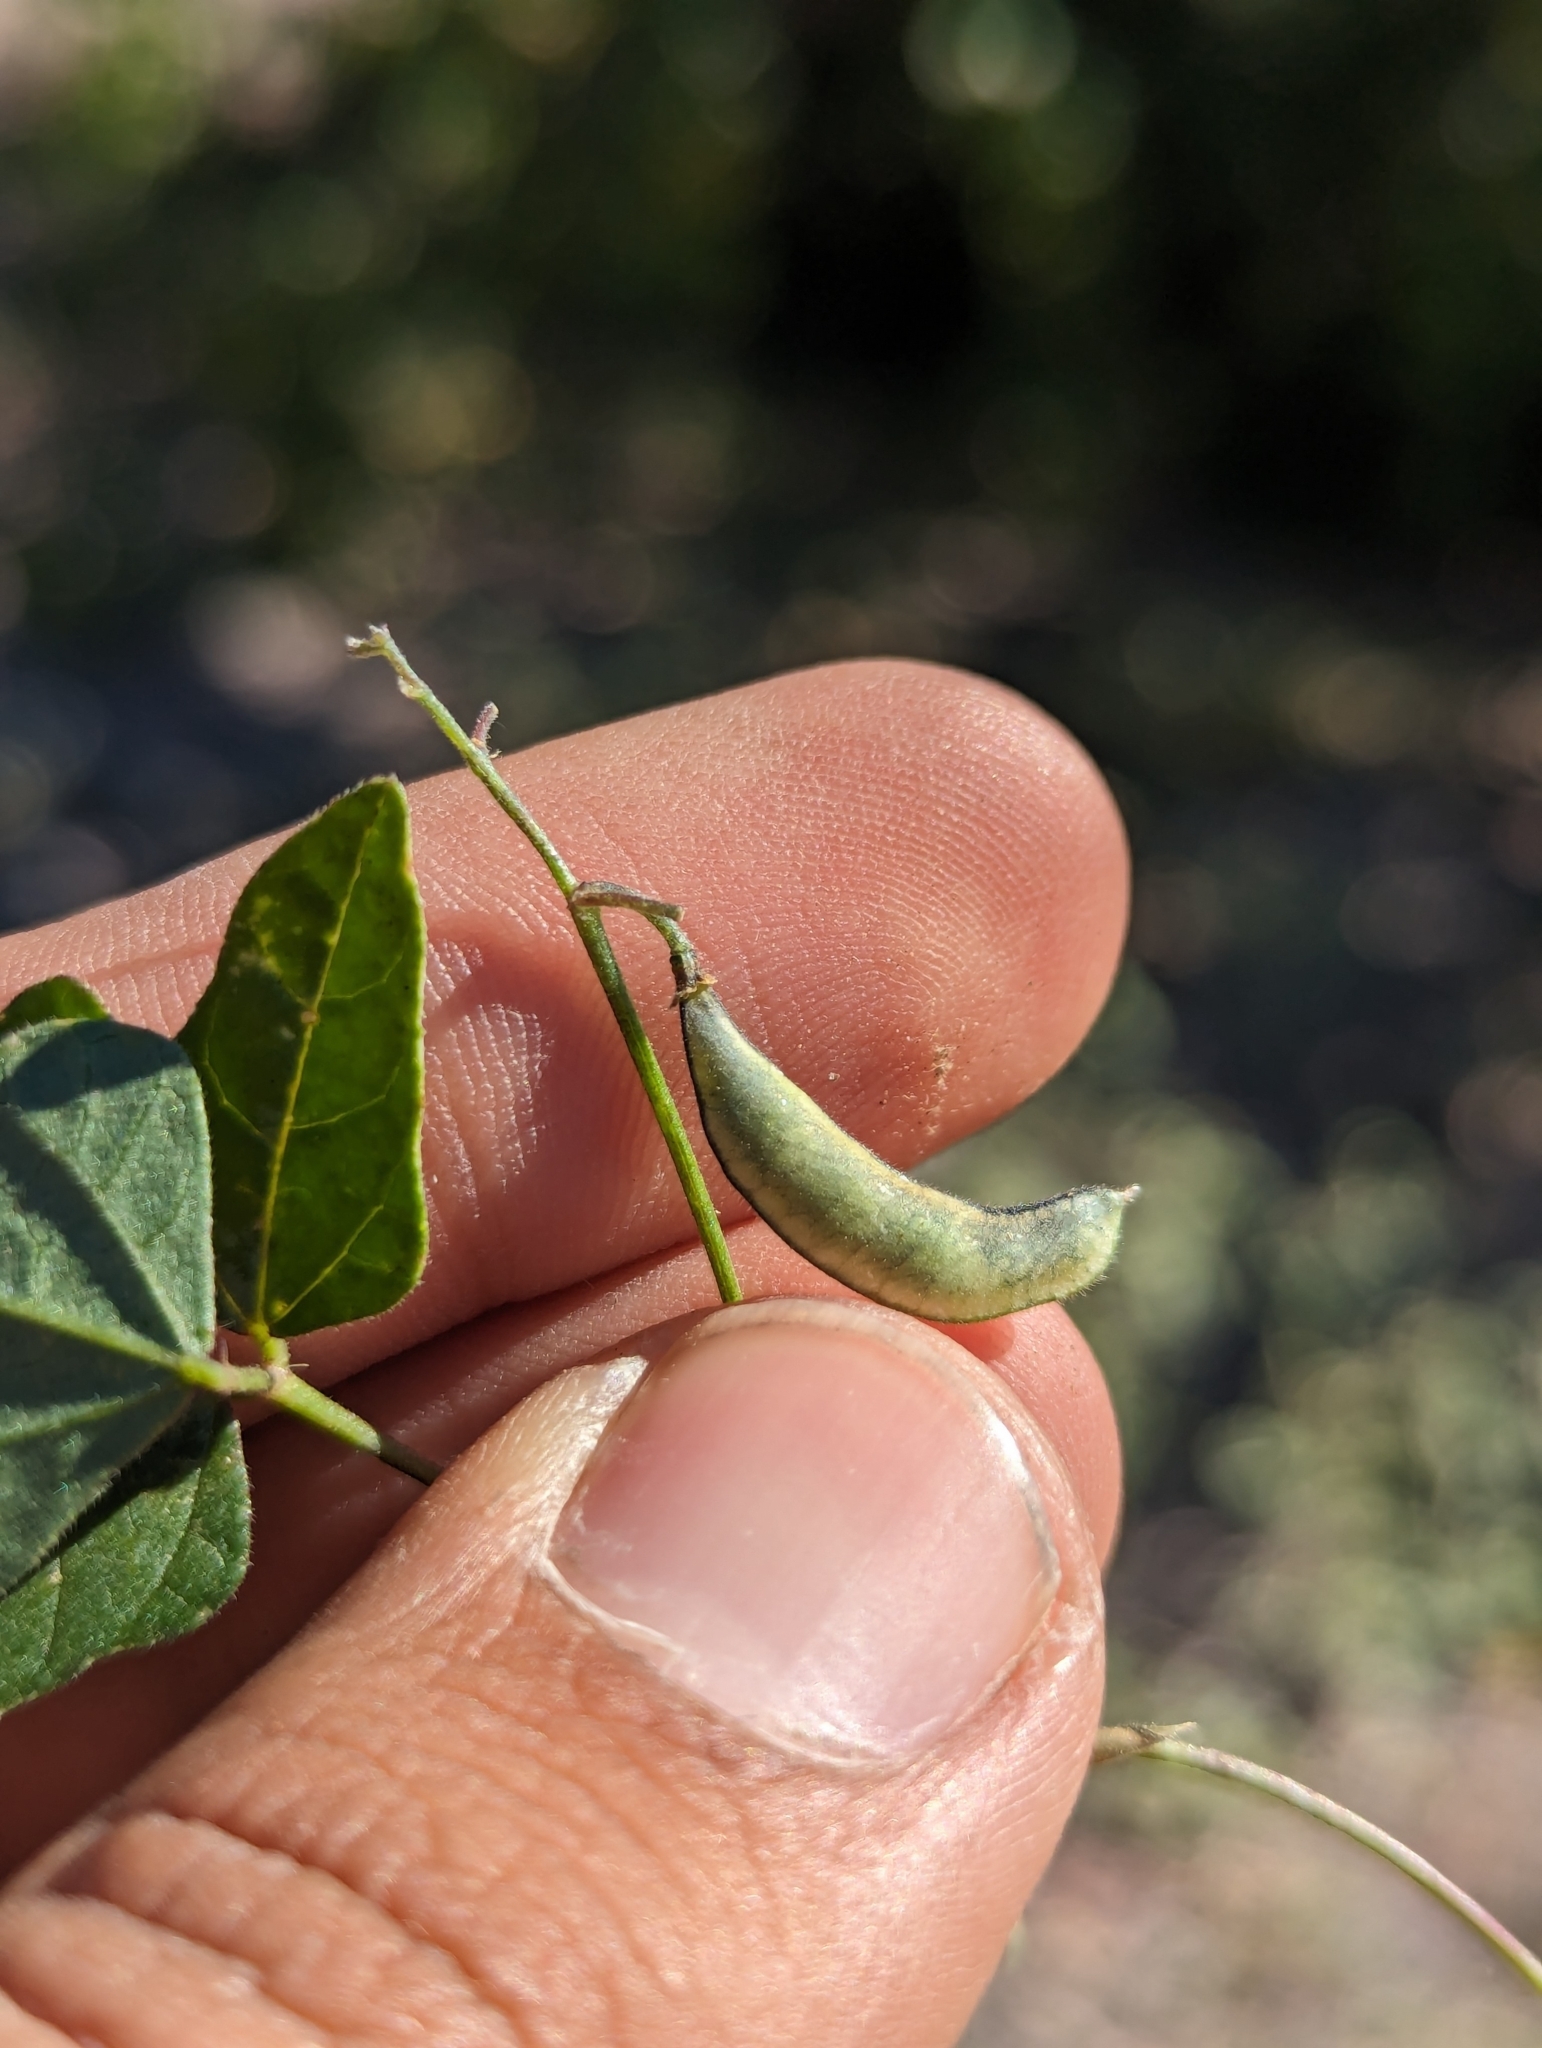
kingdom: Plantae
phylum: Tracheophyta
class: Magnoliopsida
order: Fabales
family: Fabaceae
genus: Phaseolus
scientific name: Phaseolus filiformis
